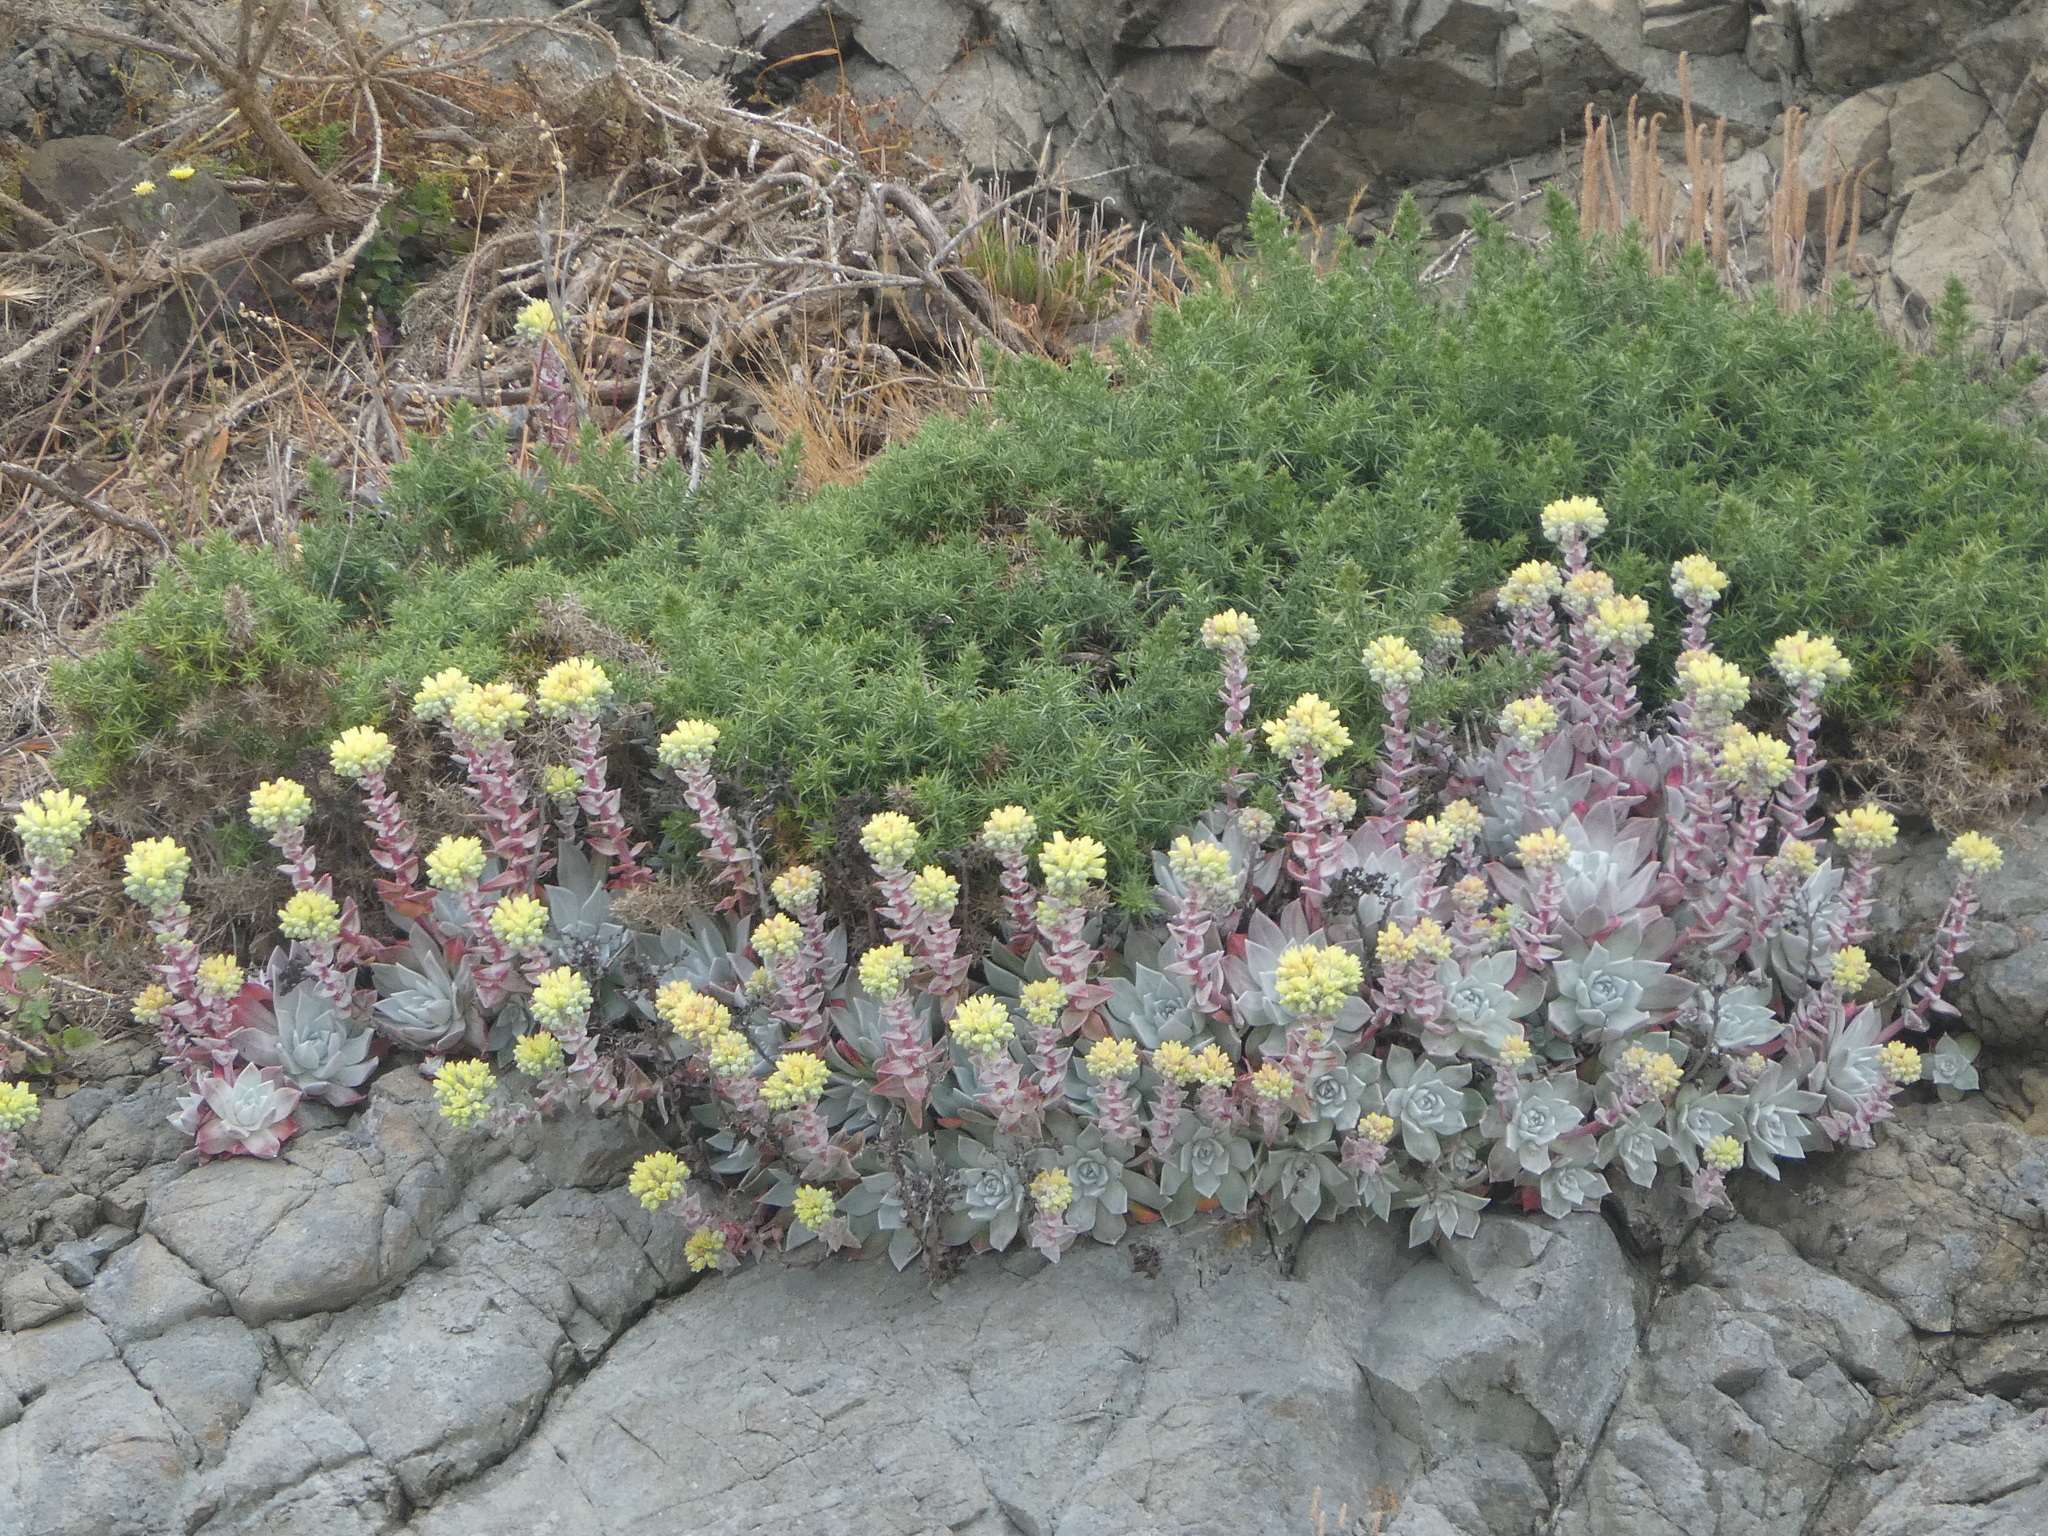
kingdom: Plantae
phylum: Tracheophyta
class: Magnoliopsida
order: Saxifragales
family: Crassulaceae
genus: Dudleya
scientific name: Dudleya farinosa
